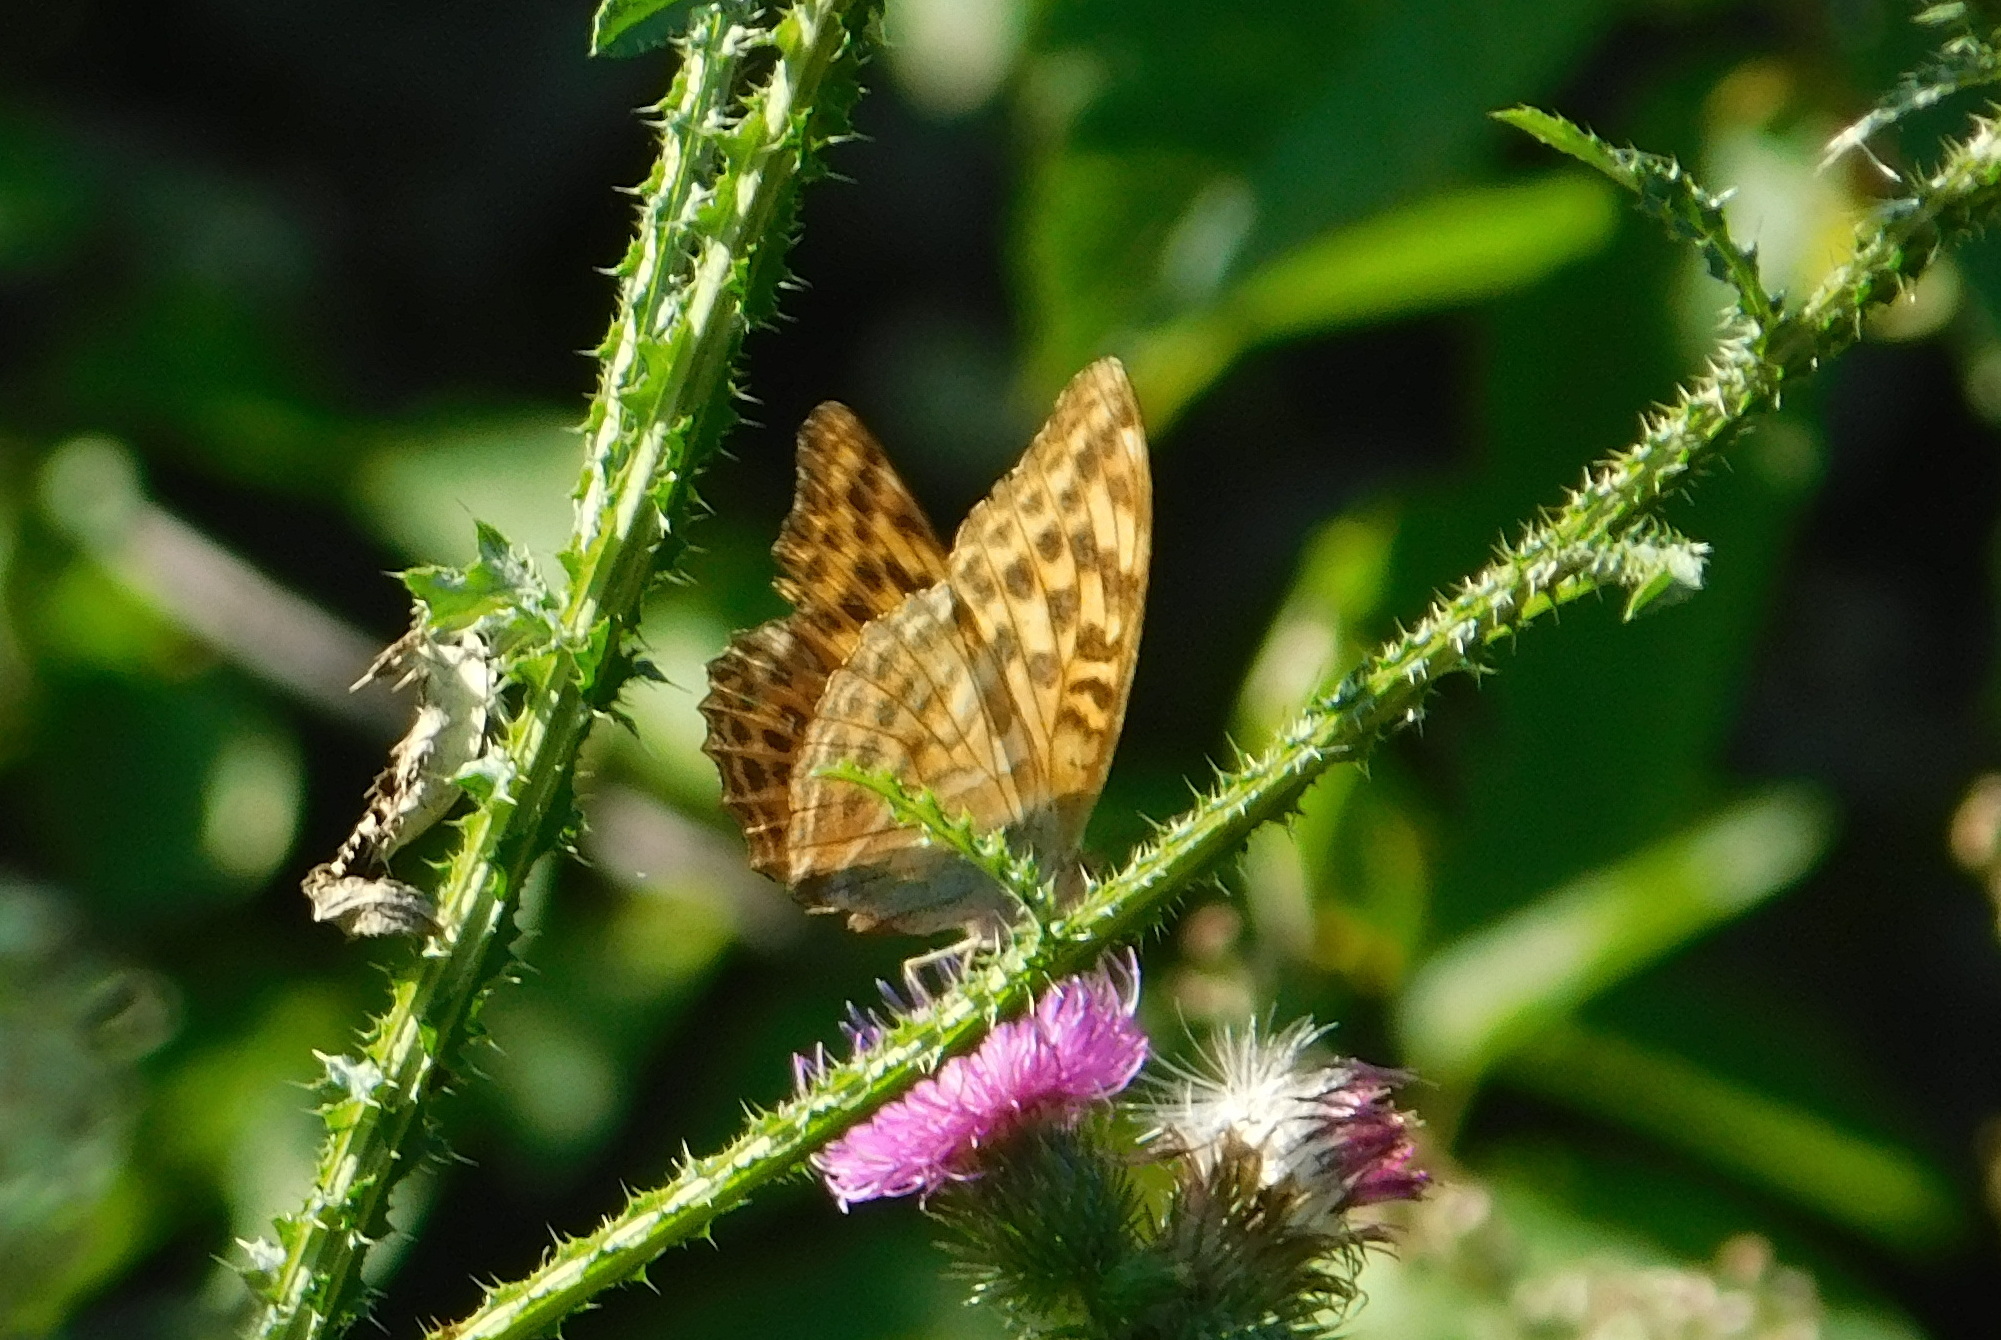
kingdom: Animalia
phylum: Arthropoda
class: Insecta
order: Lepidoptera
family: Nymphalidae
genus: Argynnis
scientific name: Argynnis paphia
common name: Silver-washed fritillary
